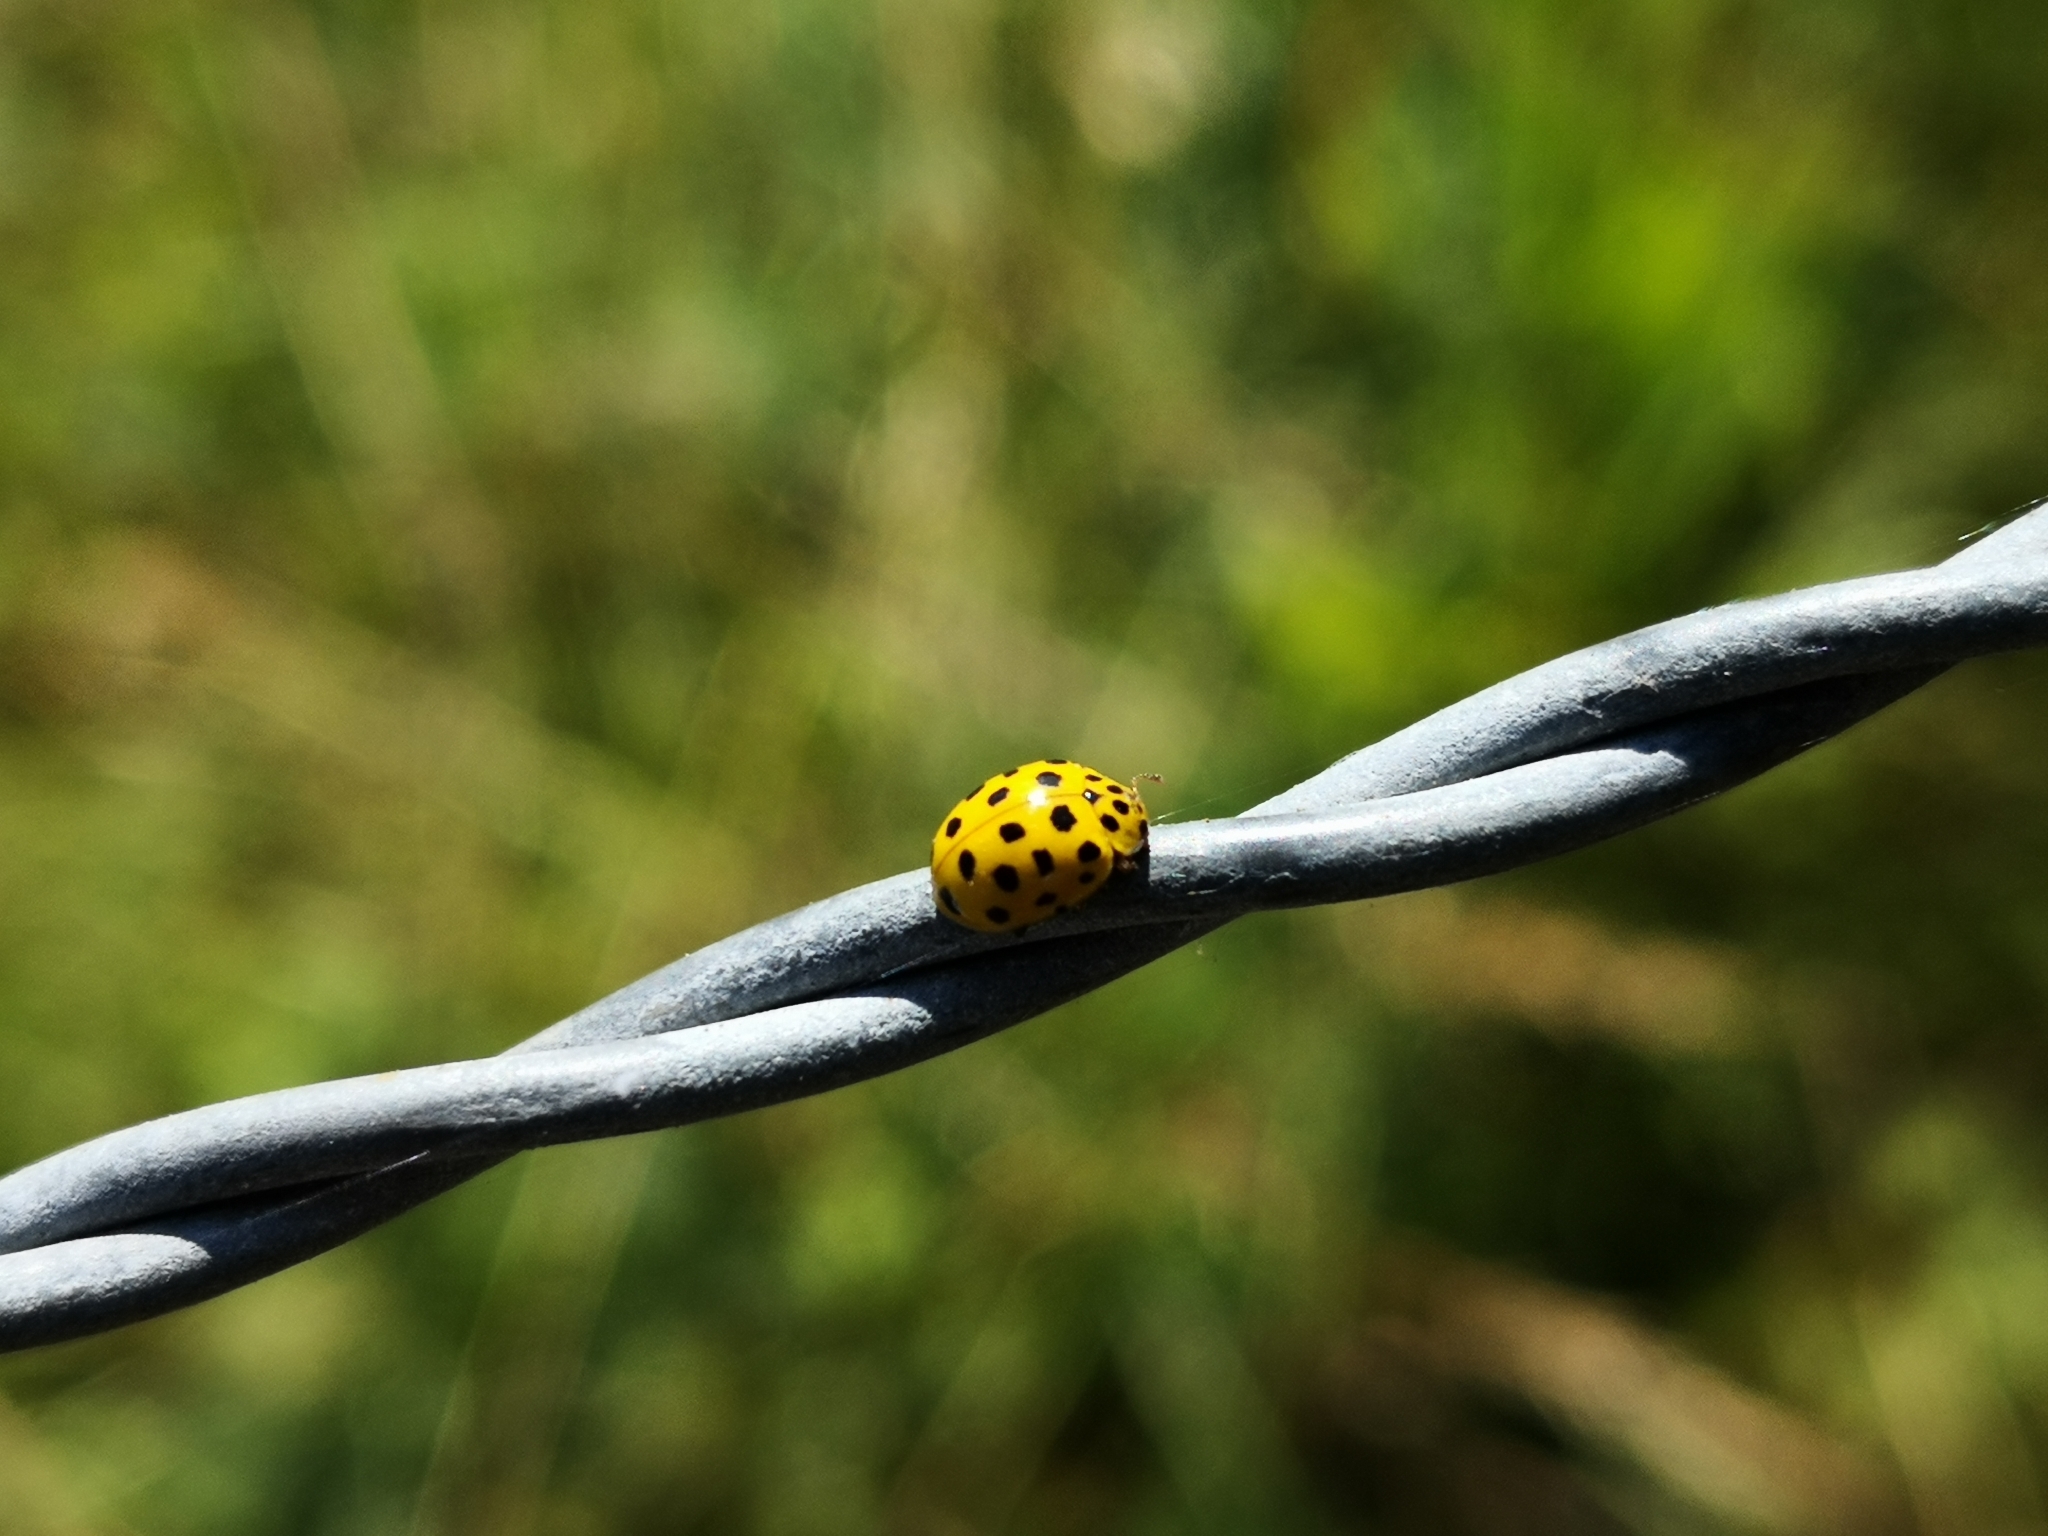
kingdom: Animalia
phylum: Arthropoda
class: Insecta
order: Coleoptera
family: Coccinellidae
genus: Psyllobora
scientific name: Psyllobora vigintiduopunctata
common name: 22-spot ladybird
